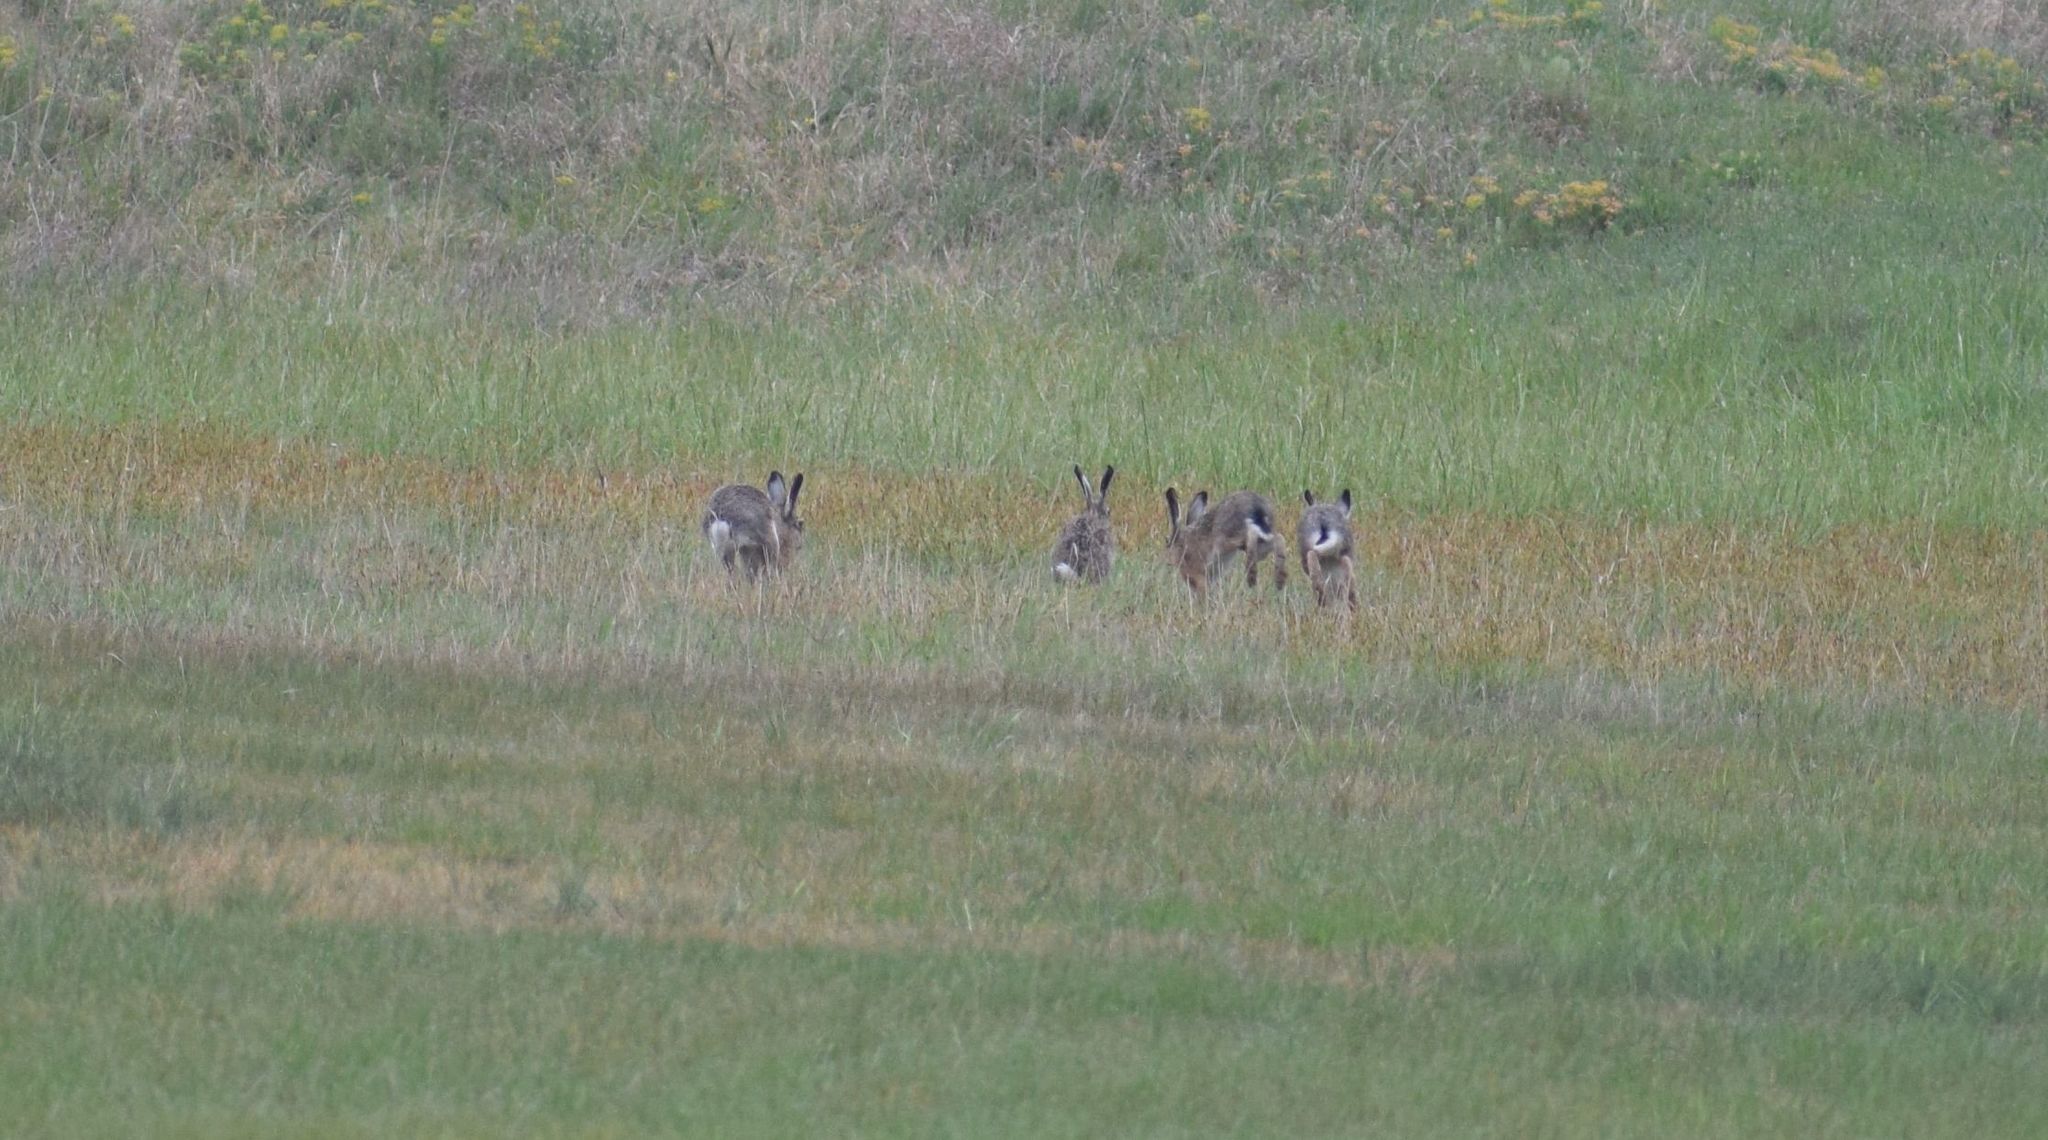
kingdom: Animalia
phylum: Chordata
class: Mammalia
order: Lagomorpha
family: Leporidae
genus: Lepus
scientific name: Lepus europaeus
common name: European hare
